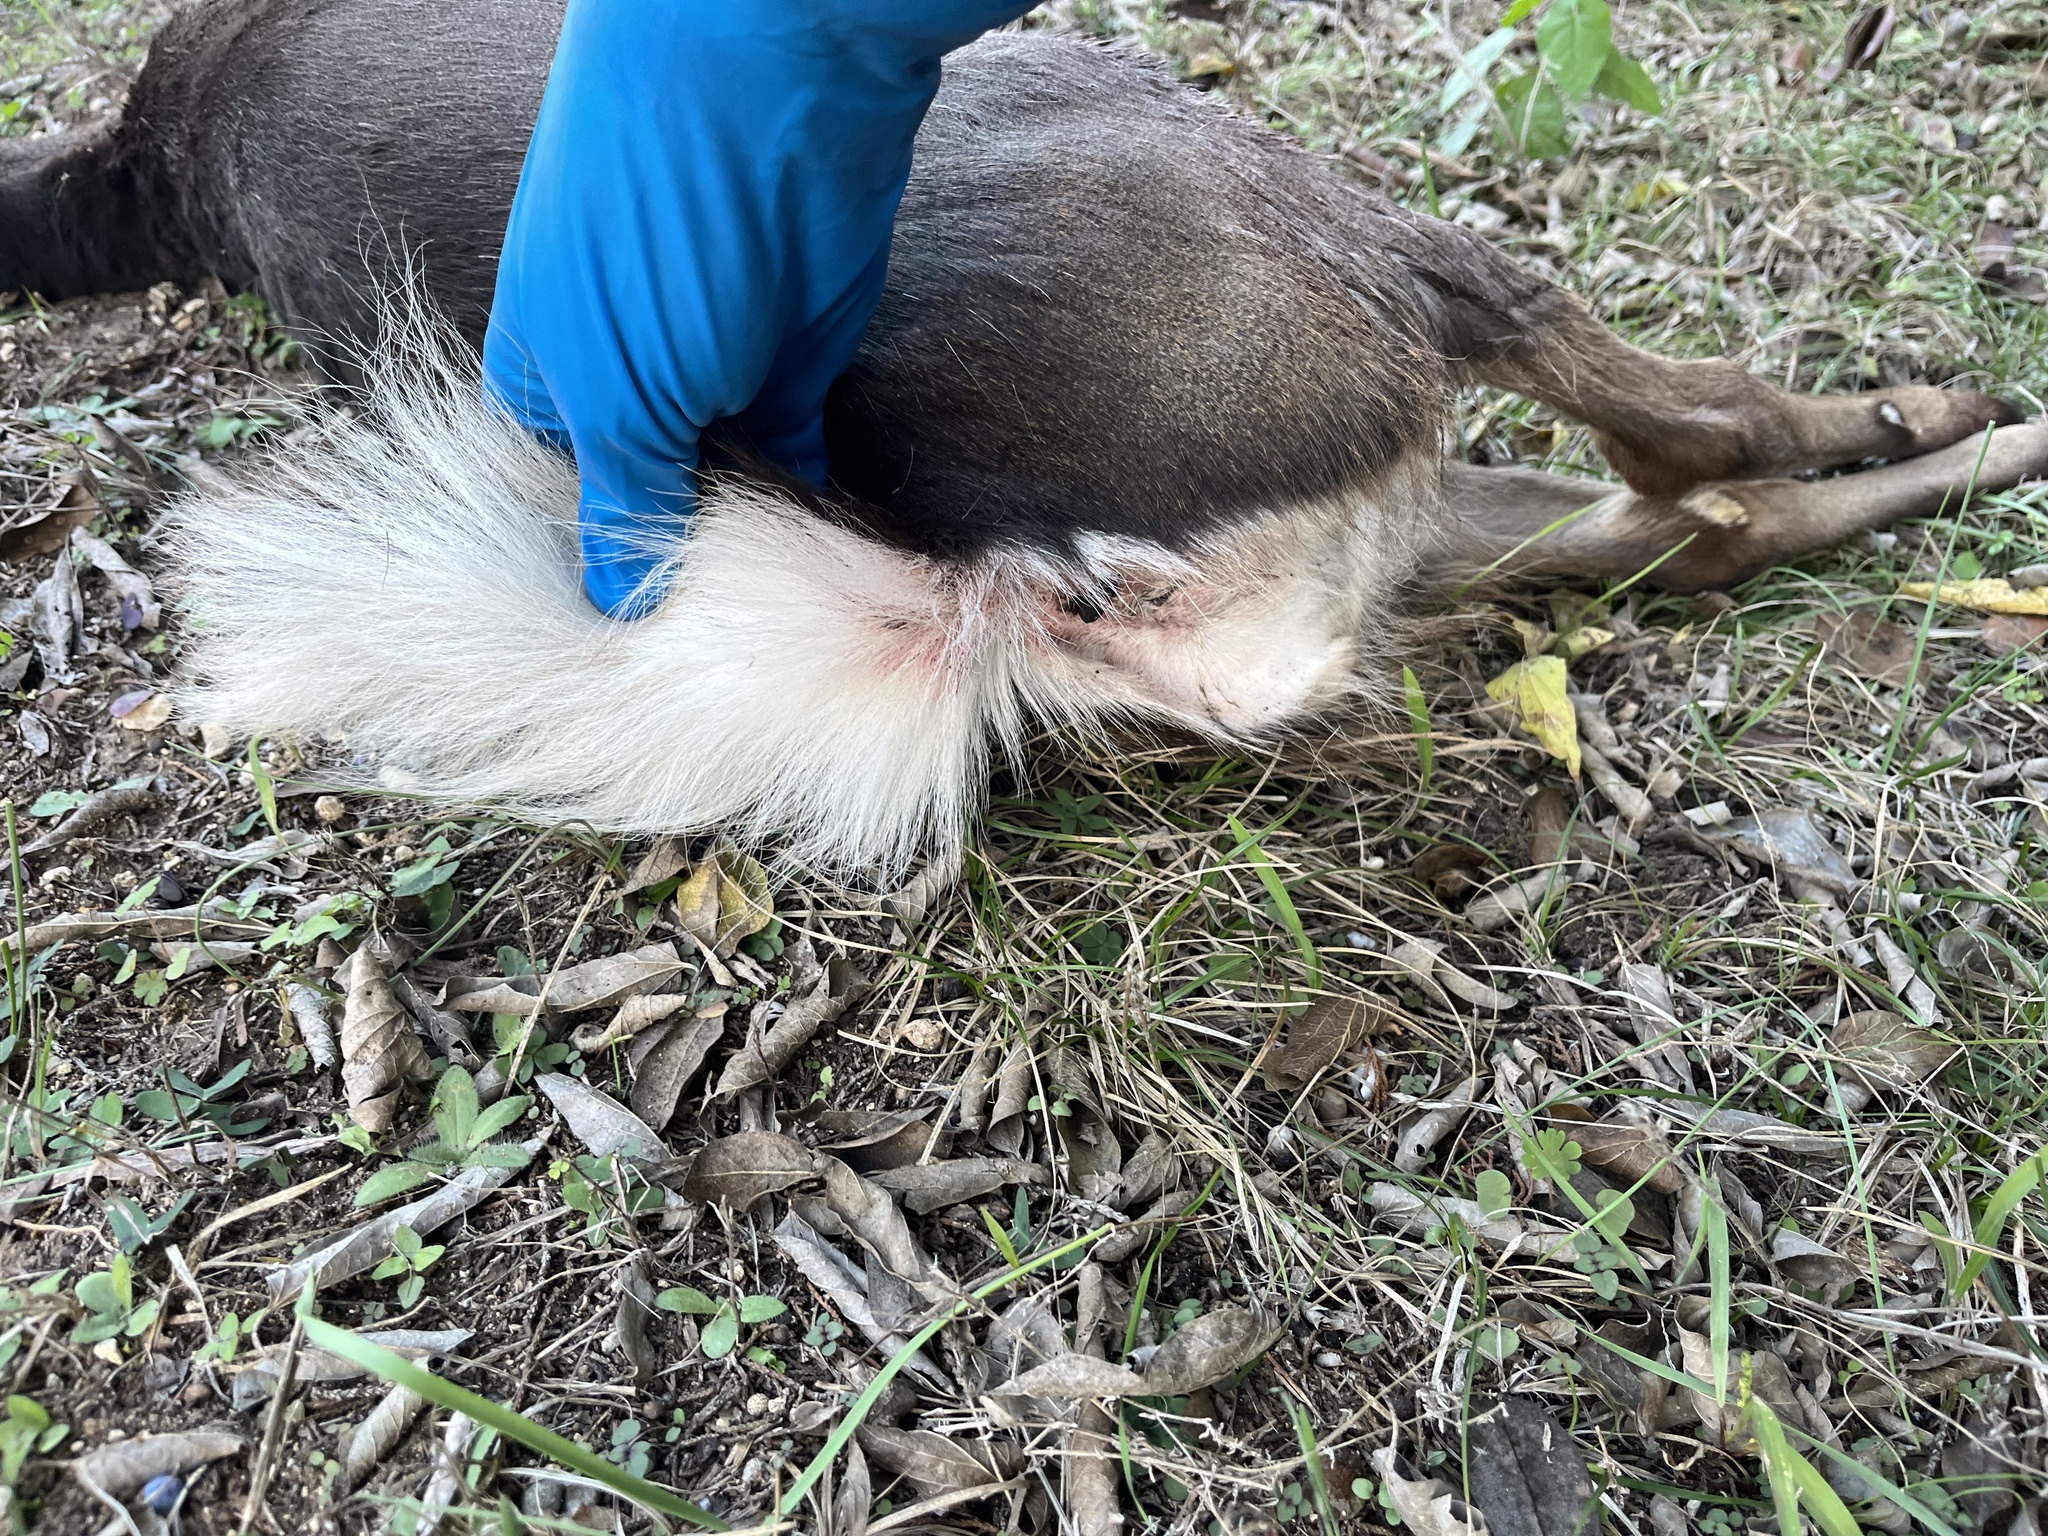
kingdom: Animalia
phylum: Chordata
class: Mammalia
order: Artiodactyla
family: Cervidae
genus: Odocoileus
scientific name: Odocoileus virginianus
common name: White-tailed deer
